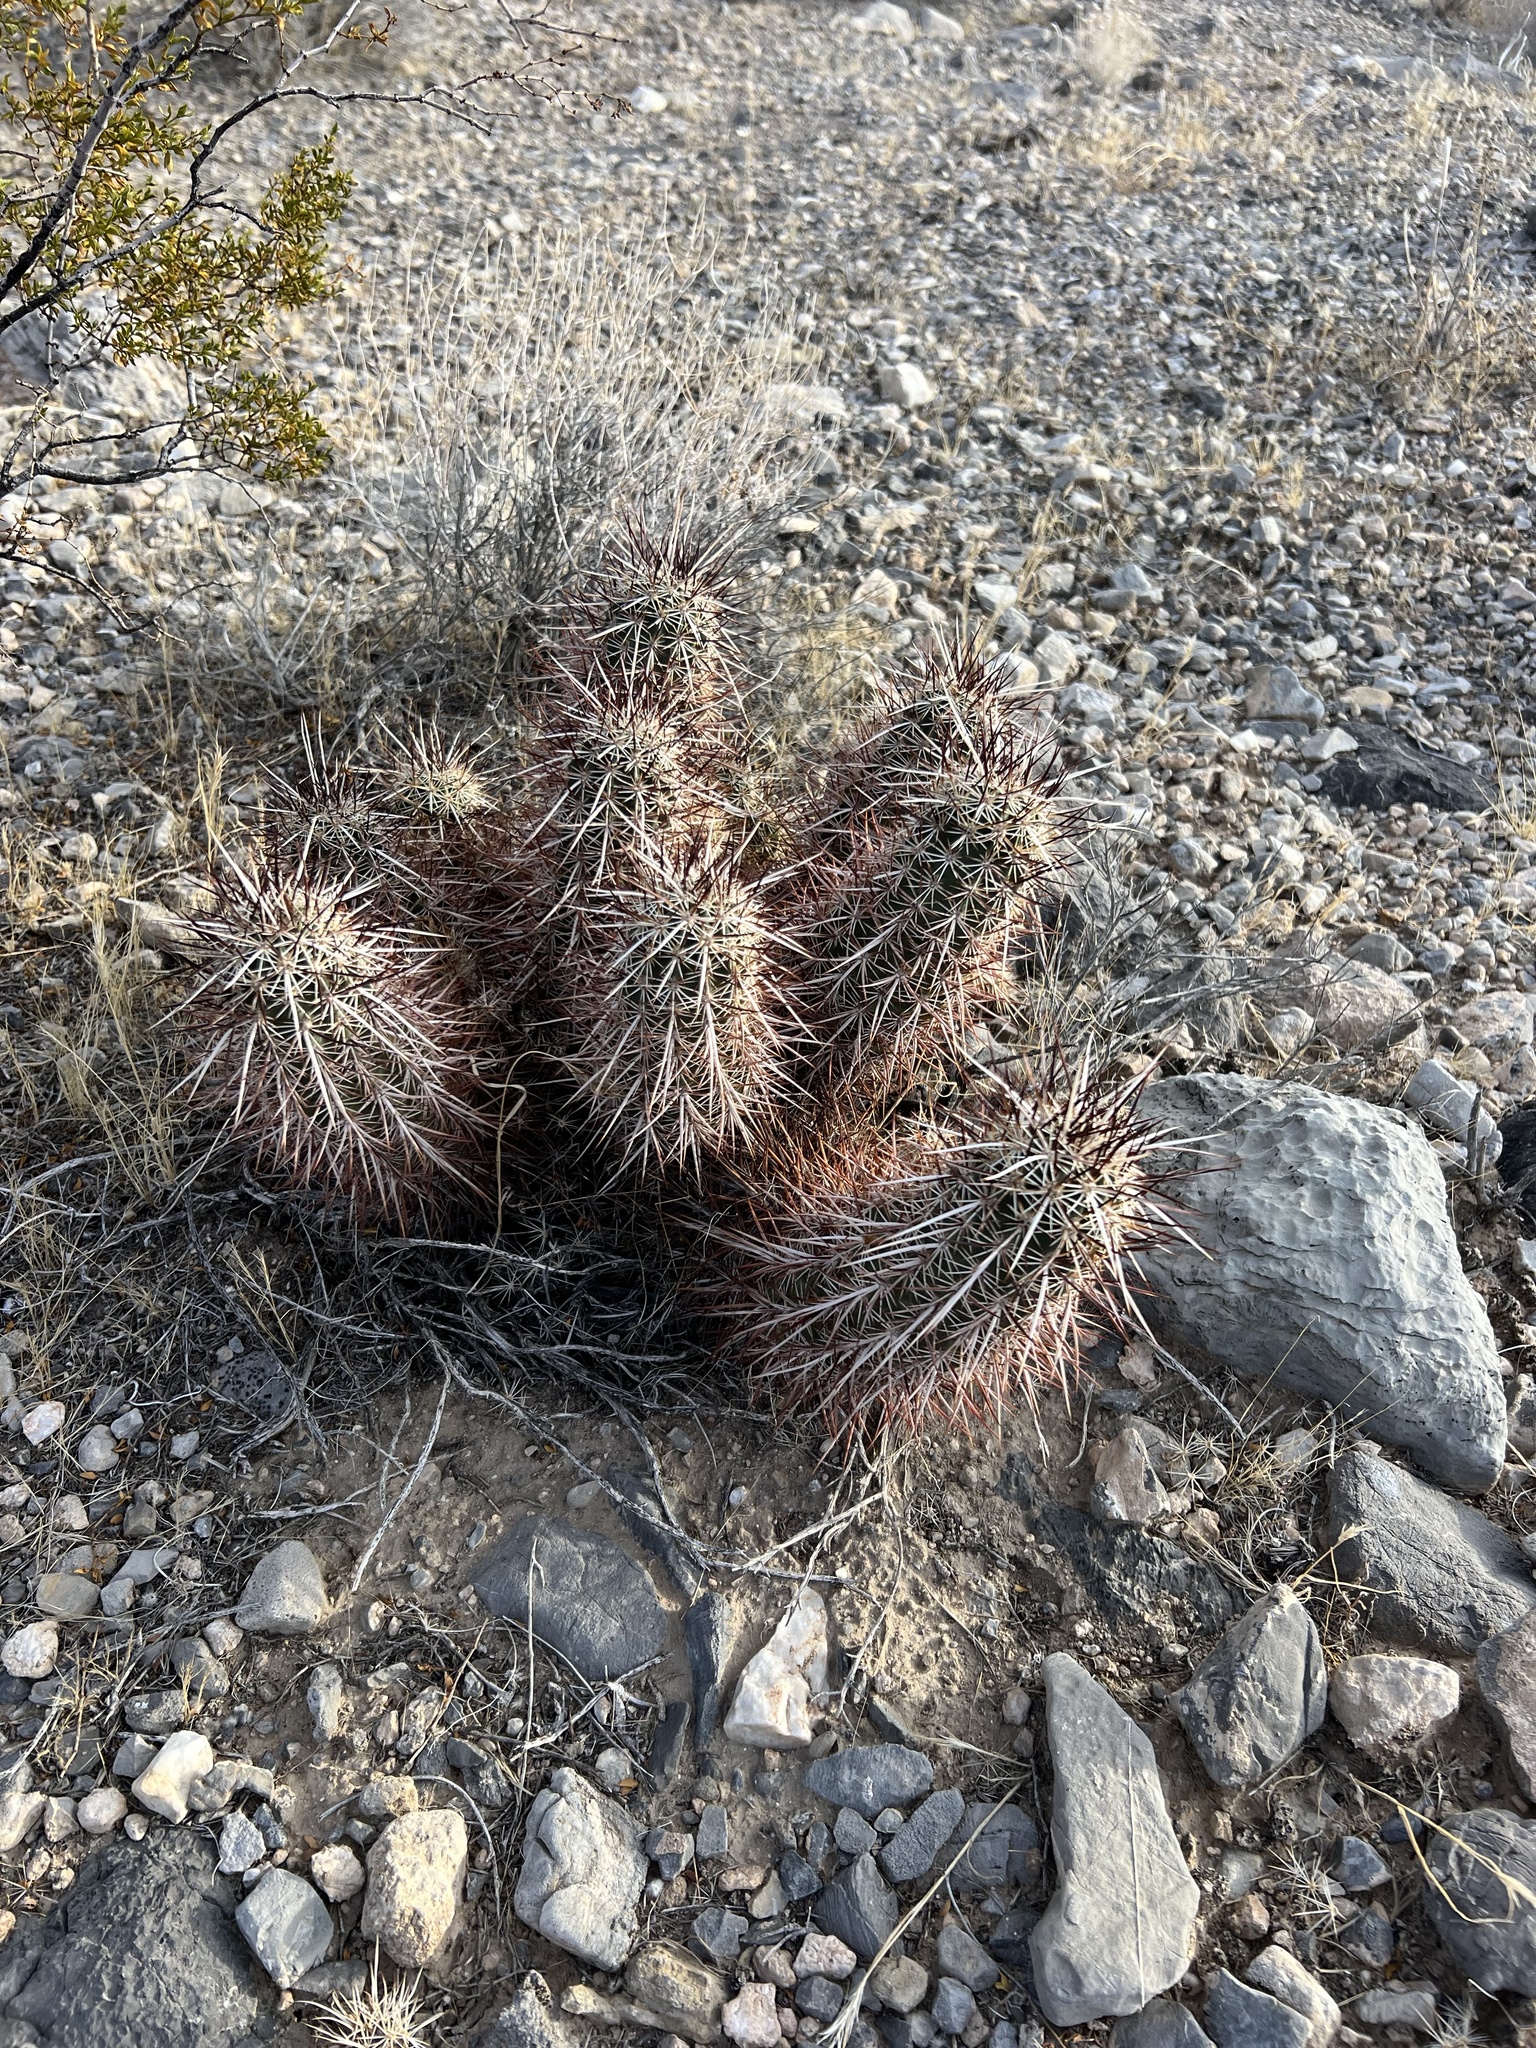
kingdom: Plantae
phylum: Tracheophyta
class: Magnoliopsida
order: Caryophyllales
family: Cactaceae
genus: Echinocereus
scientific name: Echinocereus engelmannii
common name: Engelmann's hedgehog cactus
